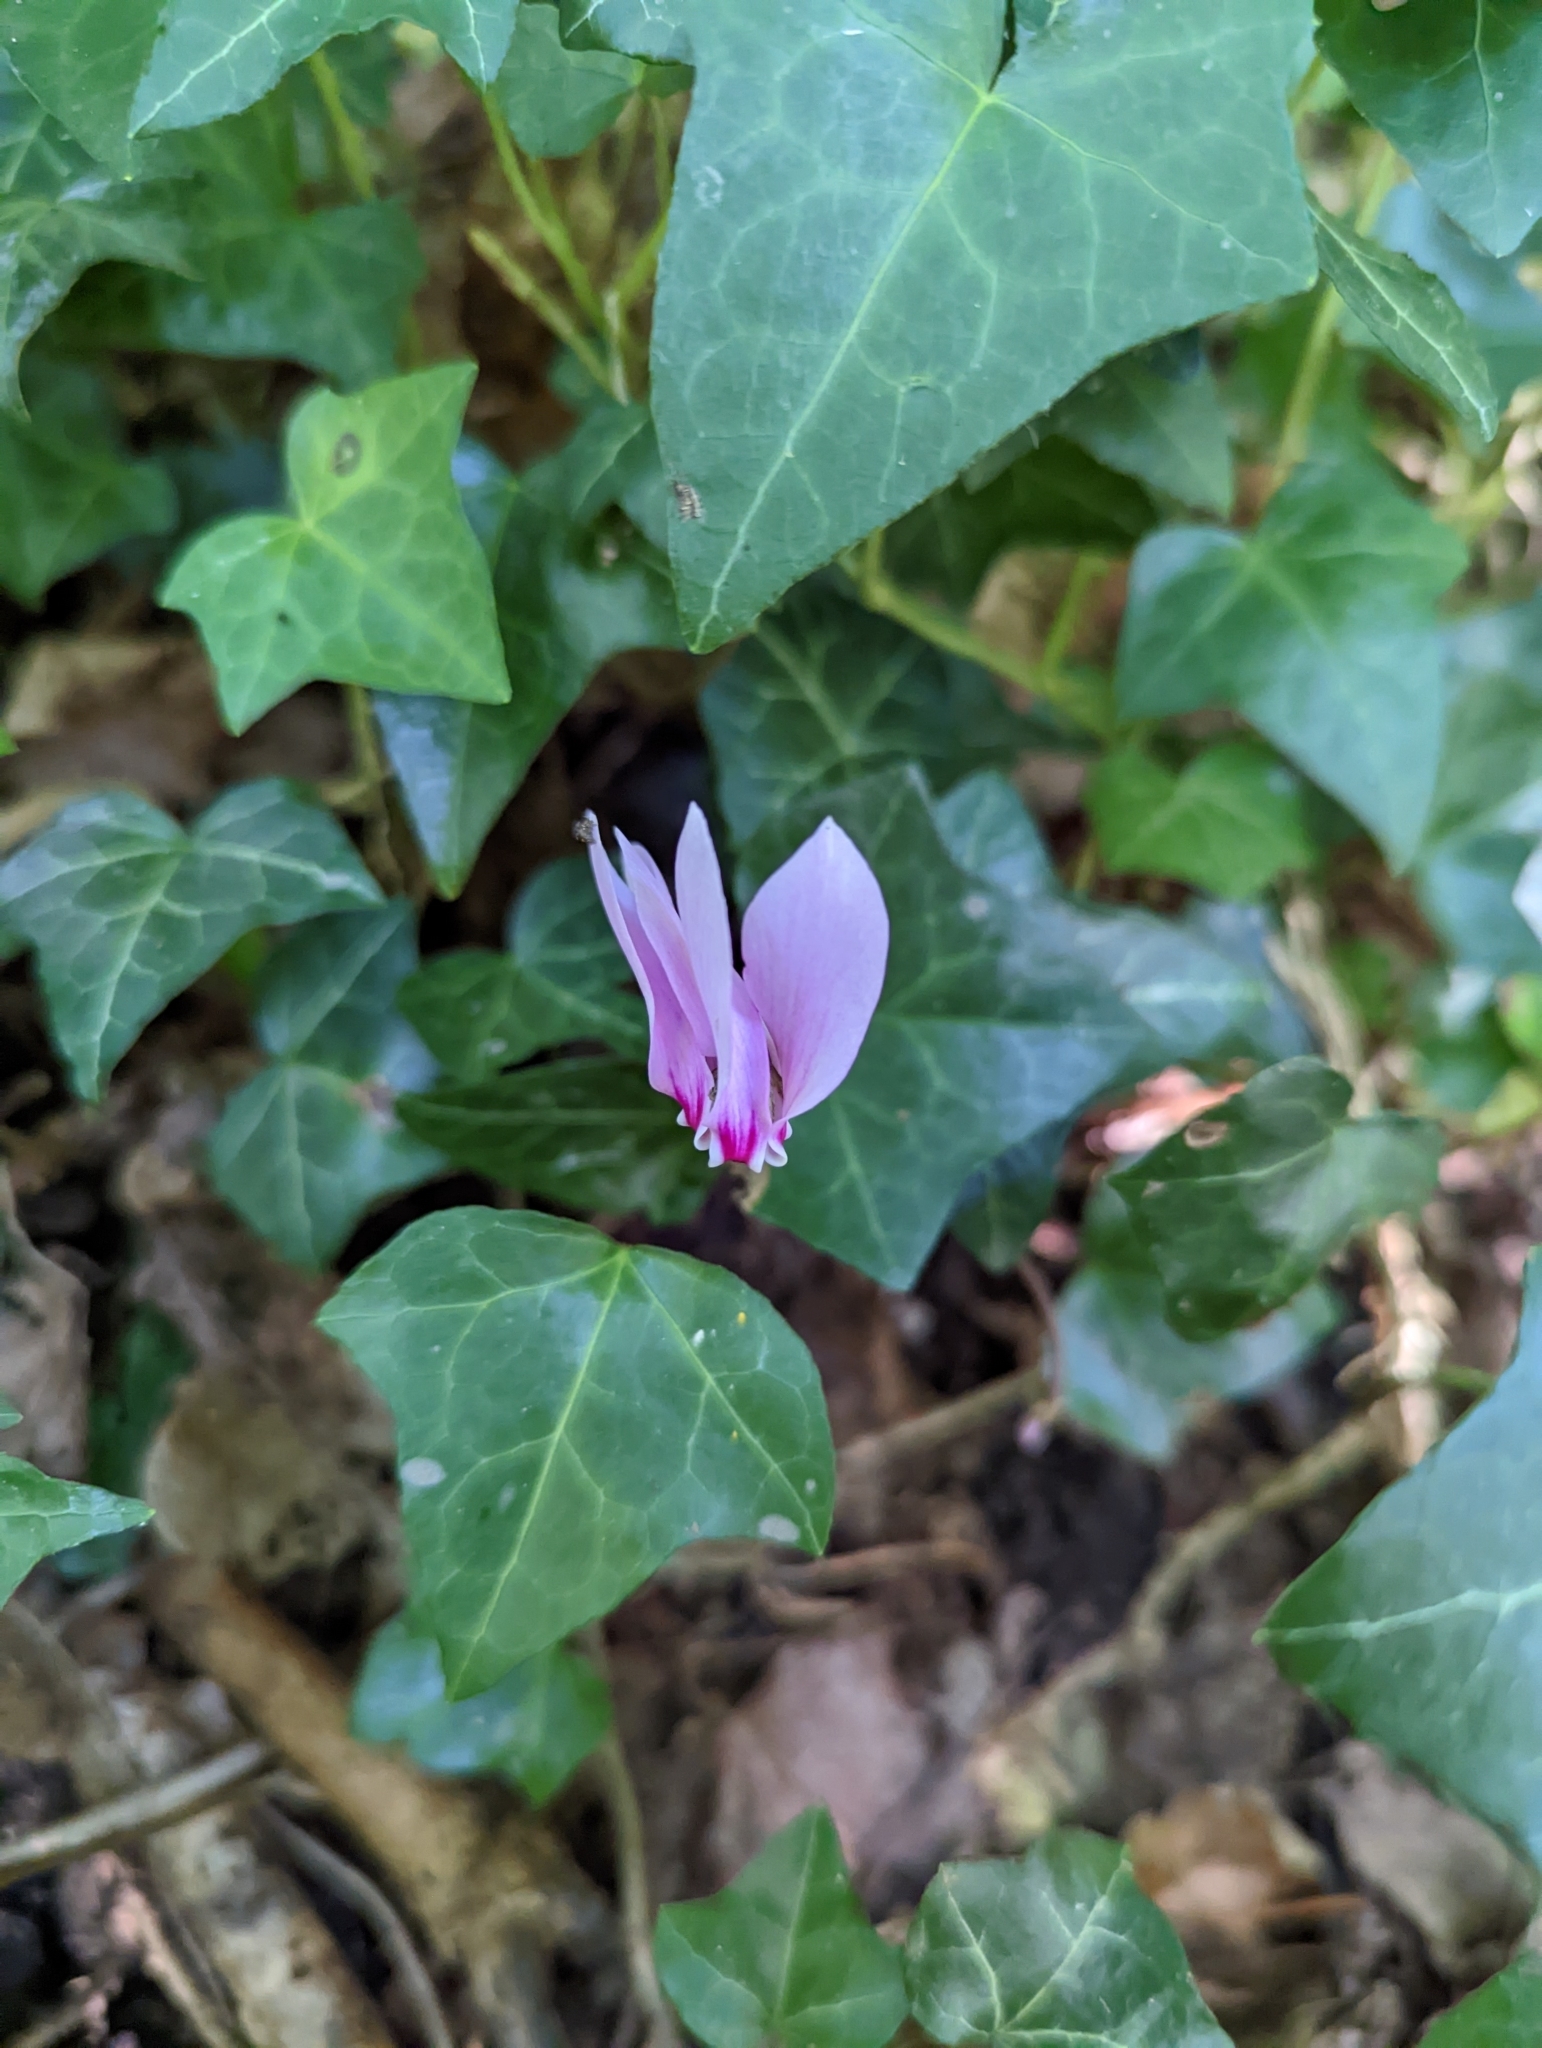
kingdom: Plantae
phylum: Tracheophyta
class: Magnoliopsida
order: Ericales
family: Primulaceae
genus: Cyclamen
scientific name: Cyclamen hederifolium
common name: Sowbread
